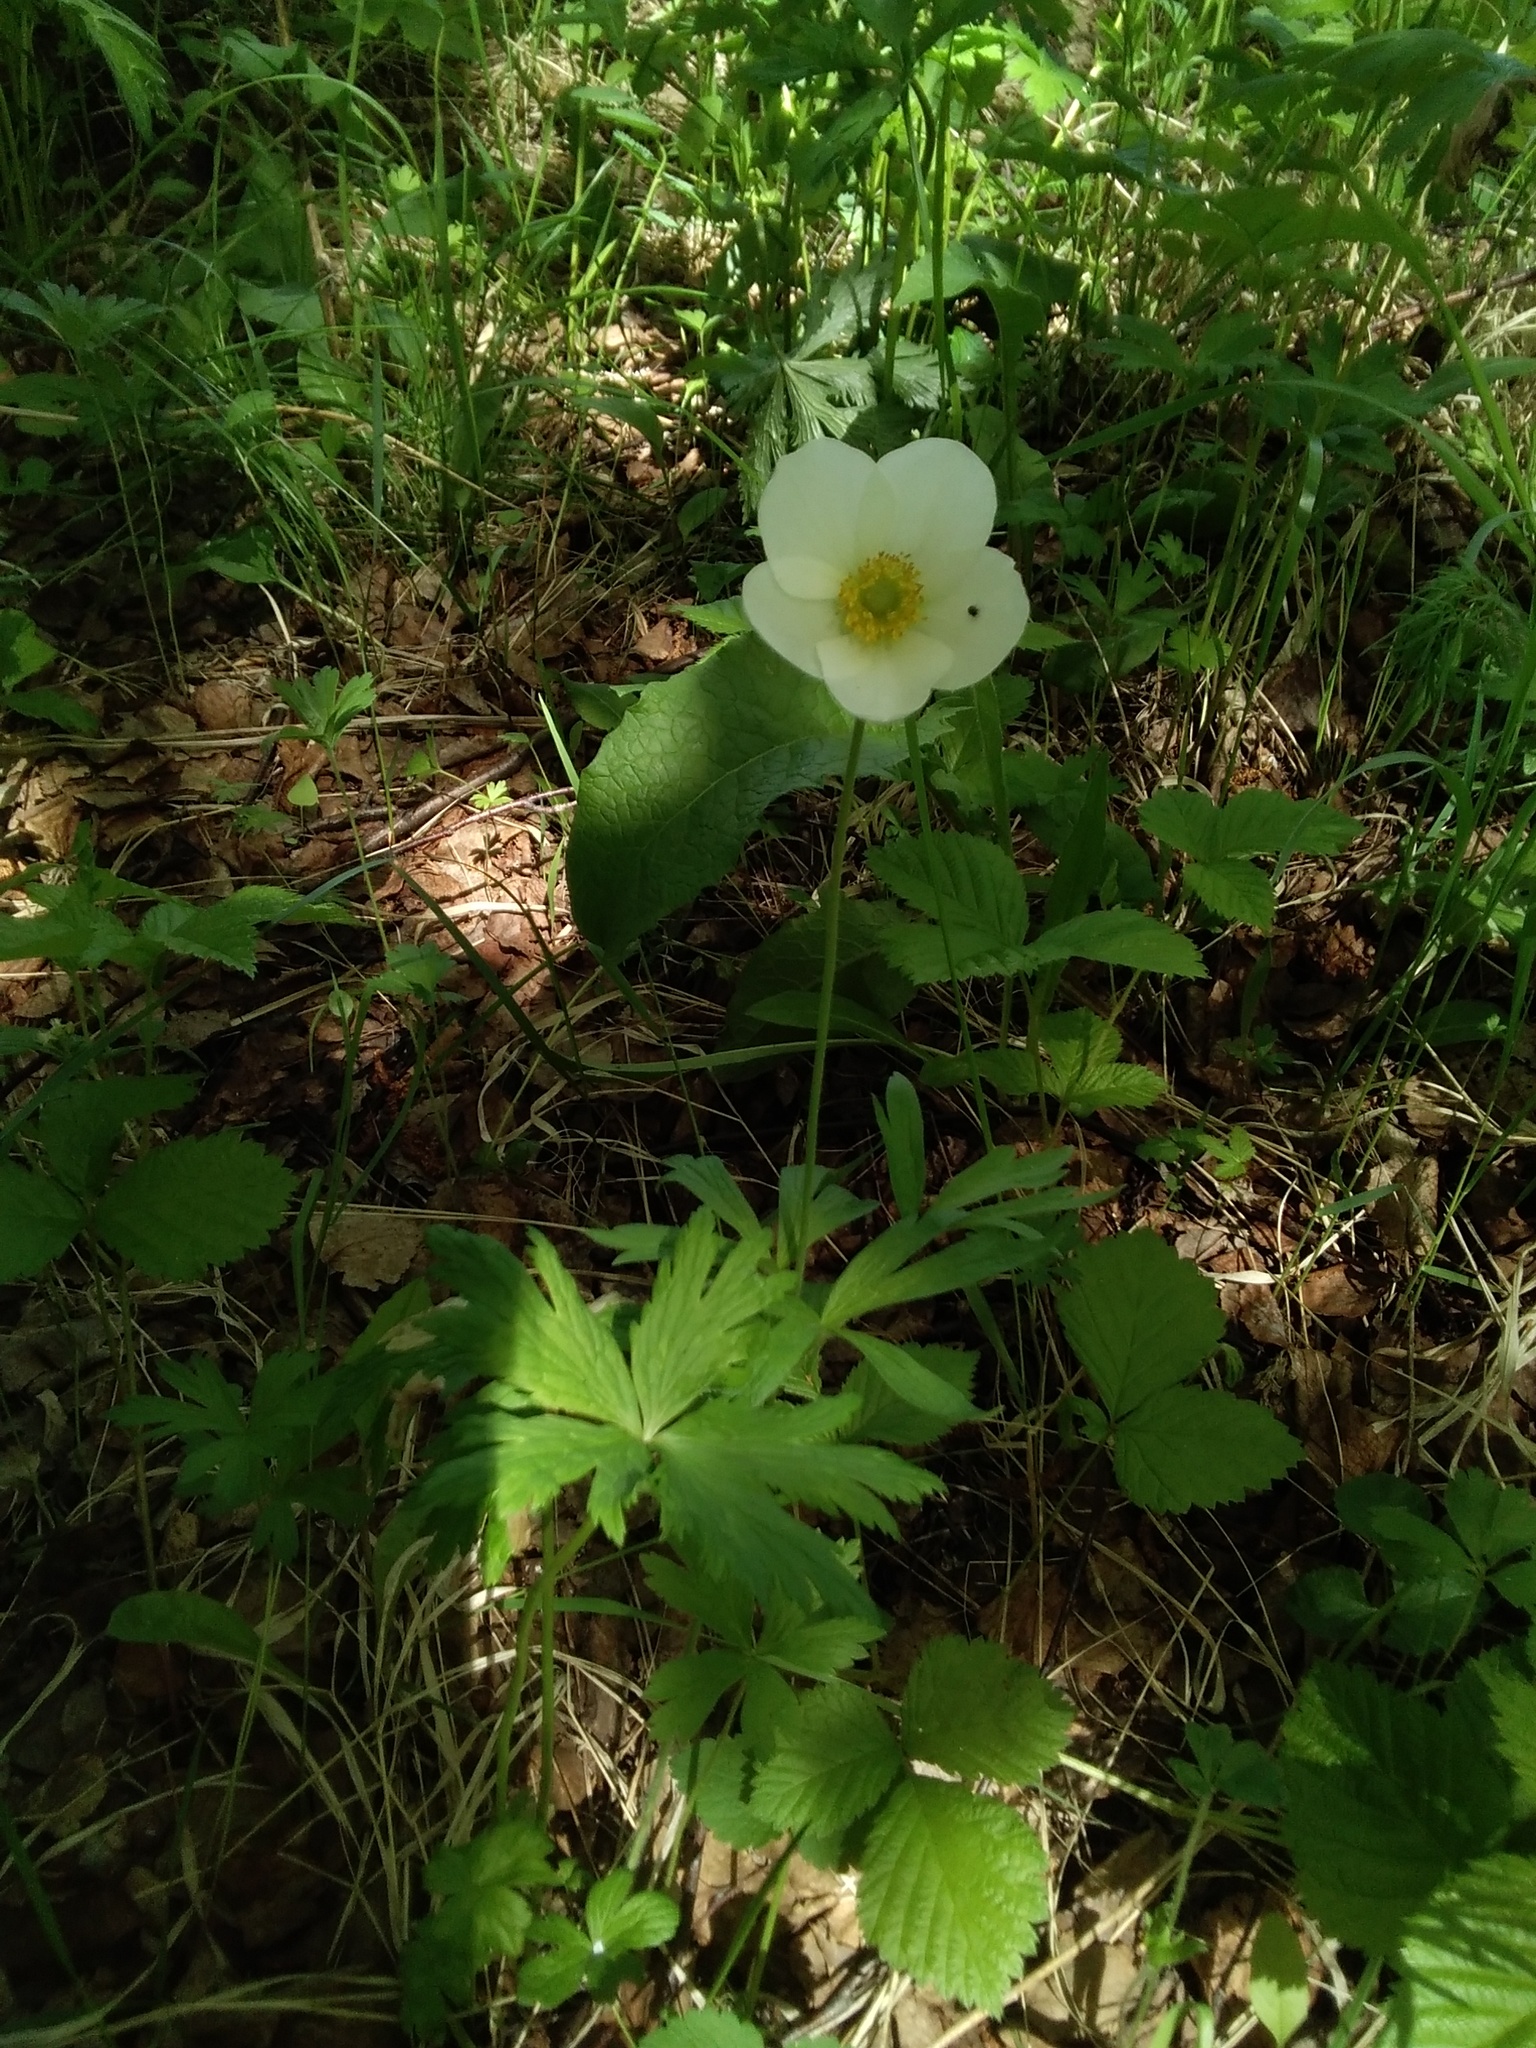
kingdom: Plantae
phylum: Tracheophyta
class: Magnoliopsida
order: Ranunculales
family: Ranunculaceae
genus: Anemone
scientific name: Anemone sylvestris
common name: Snowdrop anemone
